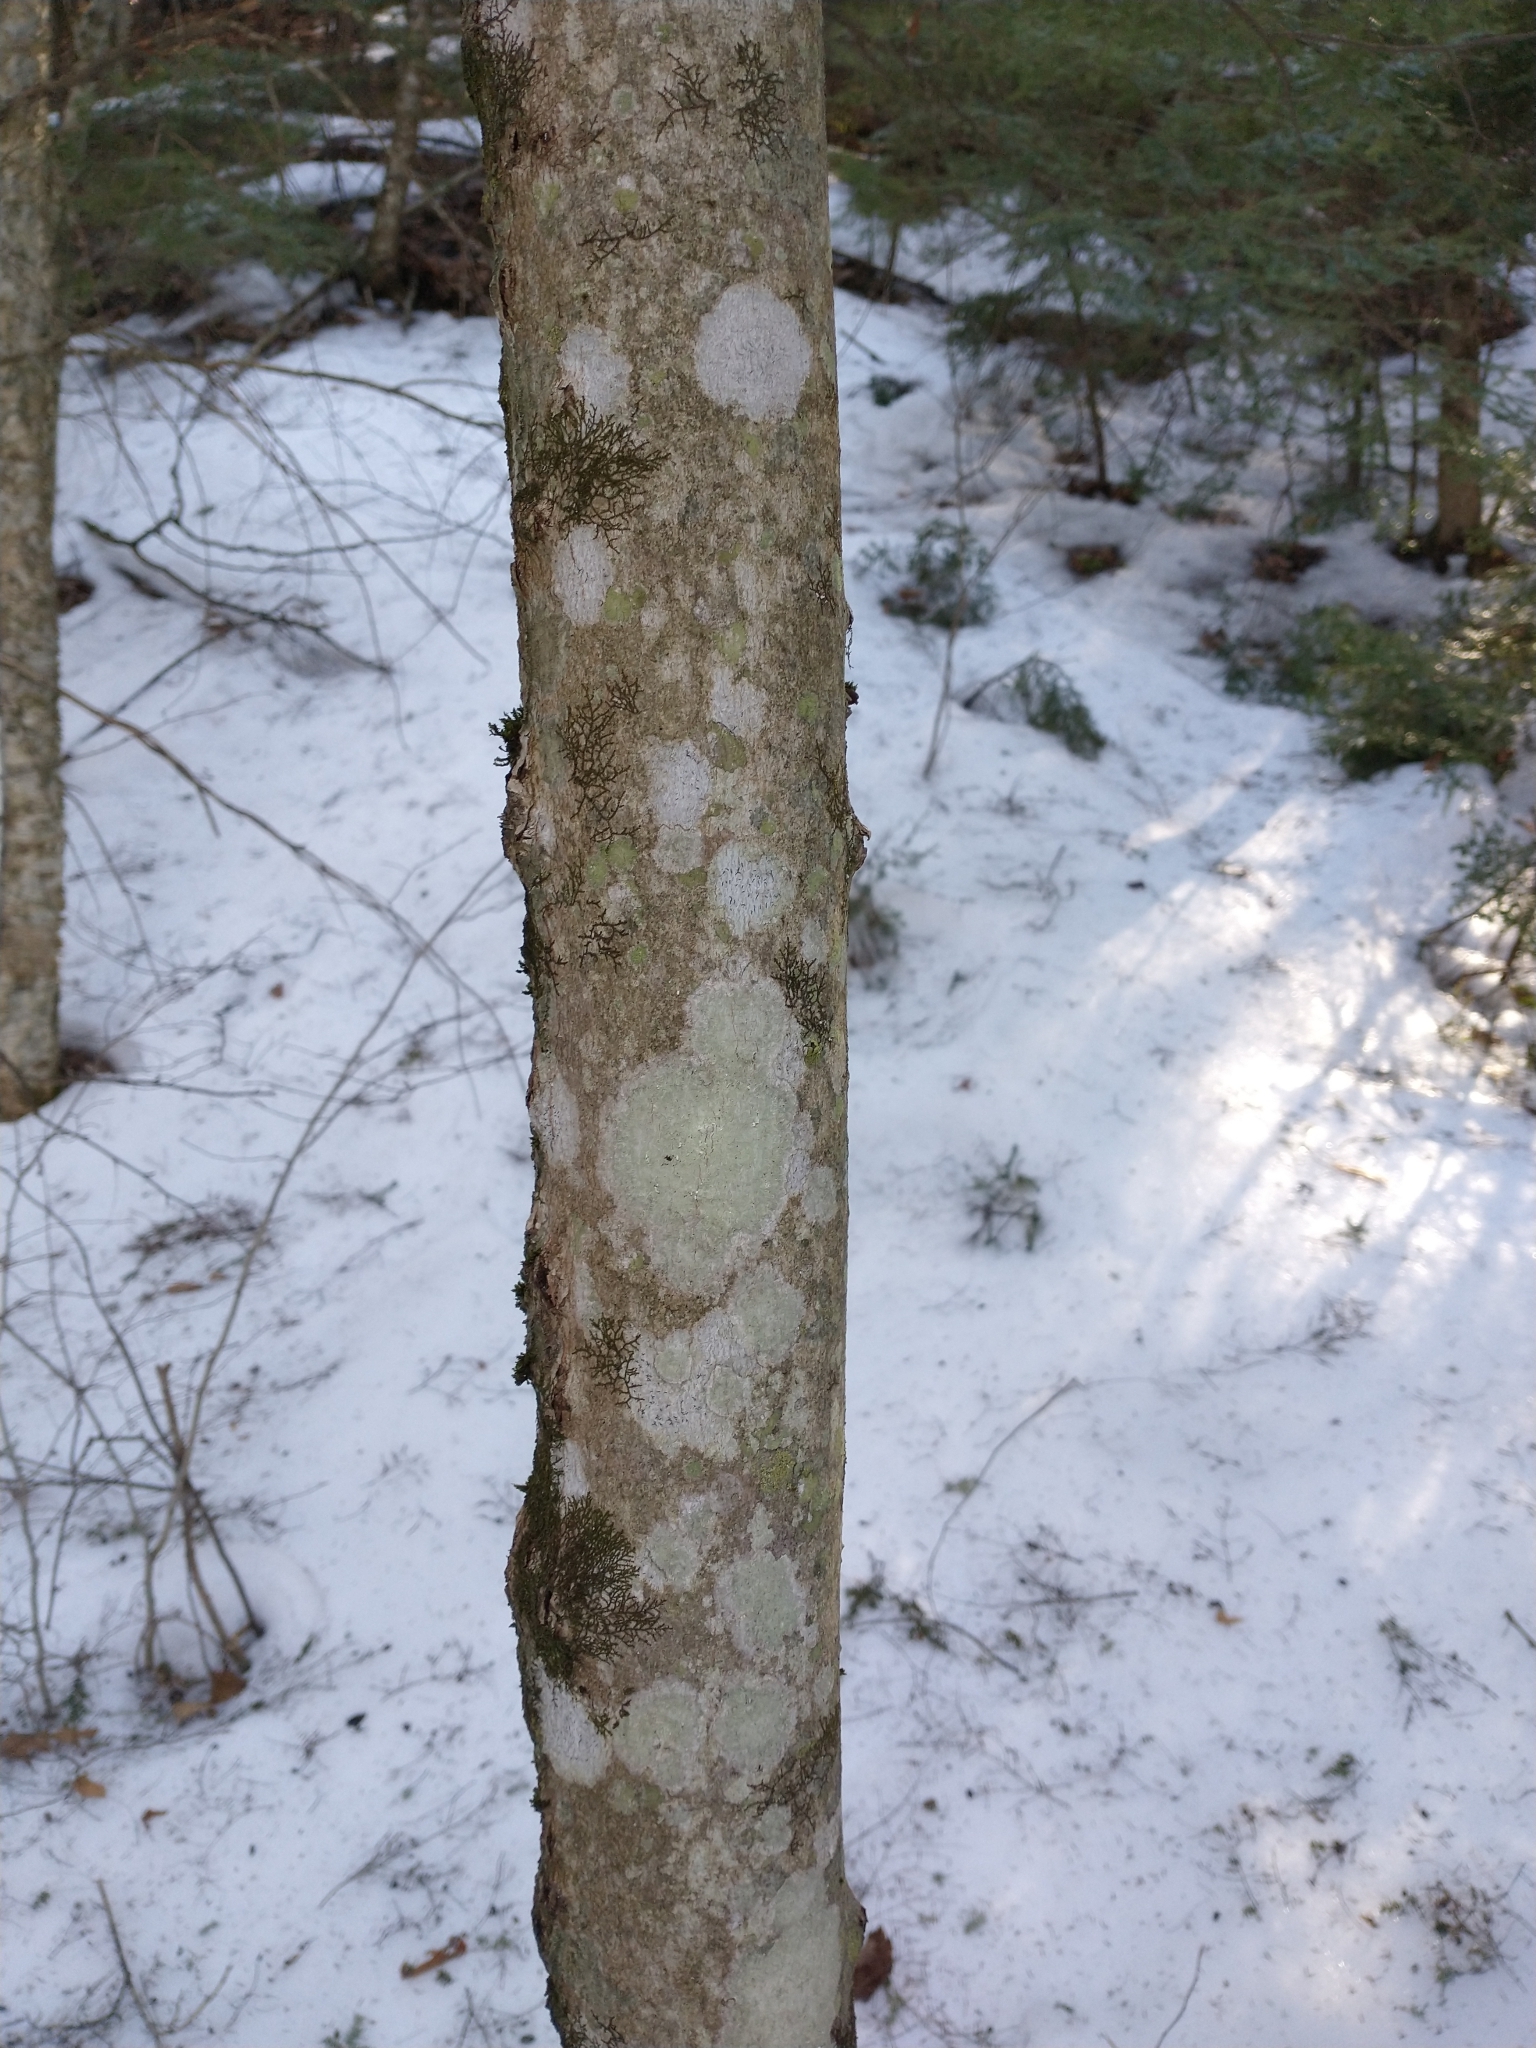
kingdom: Fungi
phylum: Ascomycota
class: Lecanoromycetes
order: Ostropales
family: Graphidaceae
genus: Graphis
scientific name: Graphis scripta
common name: Script lichen
